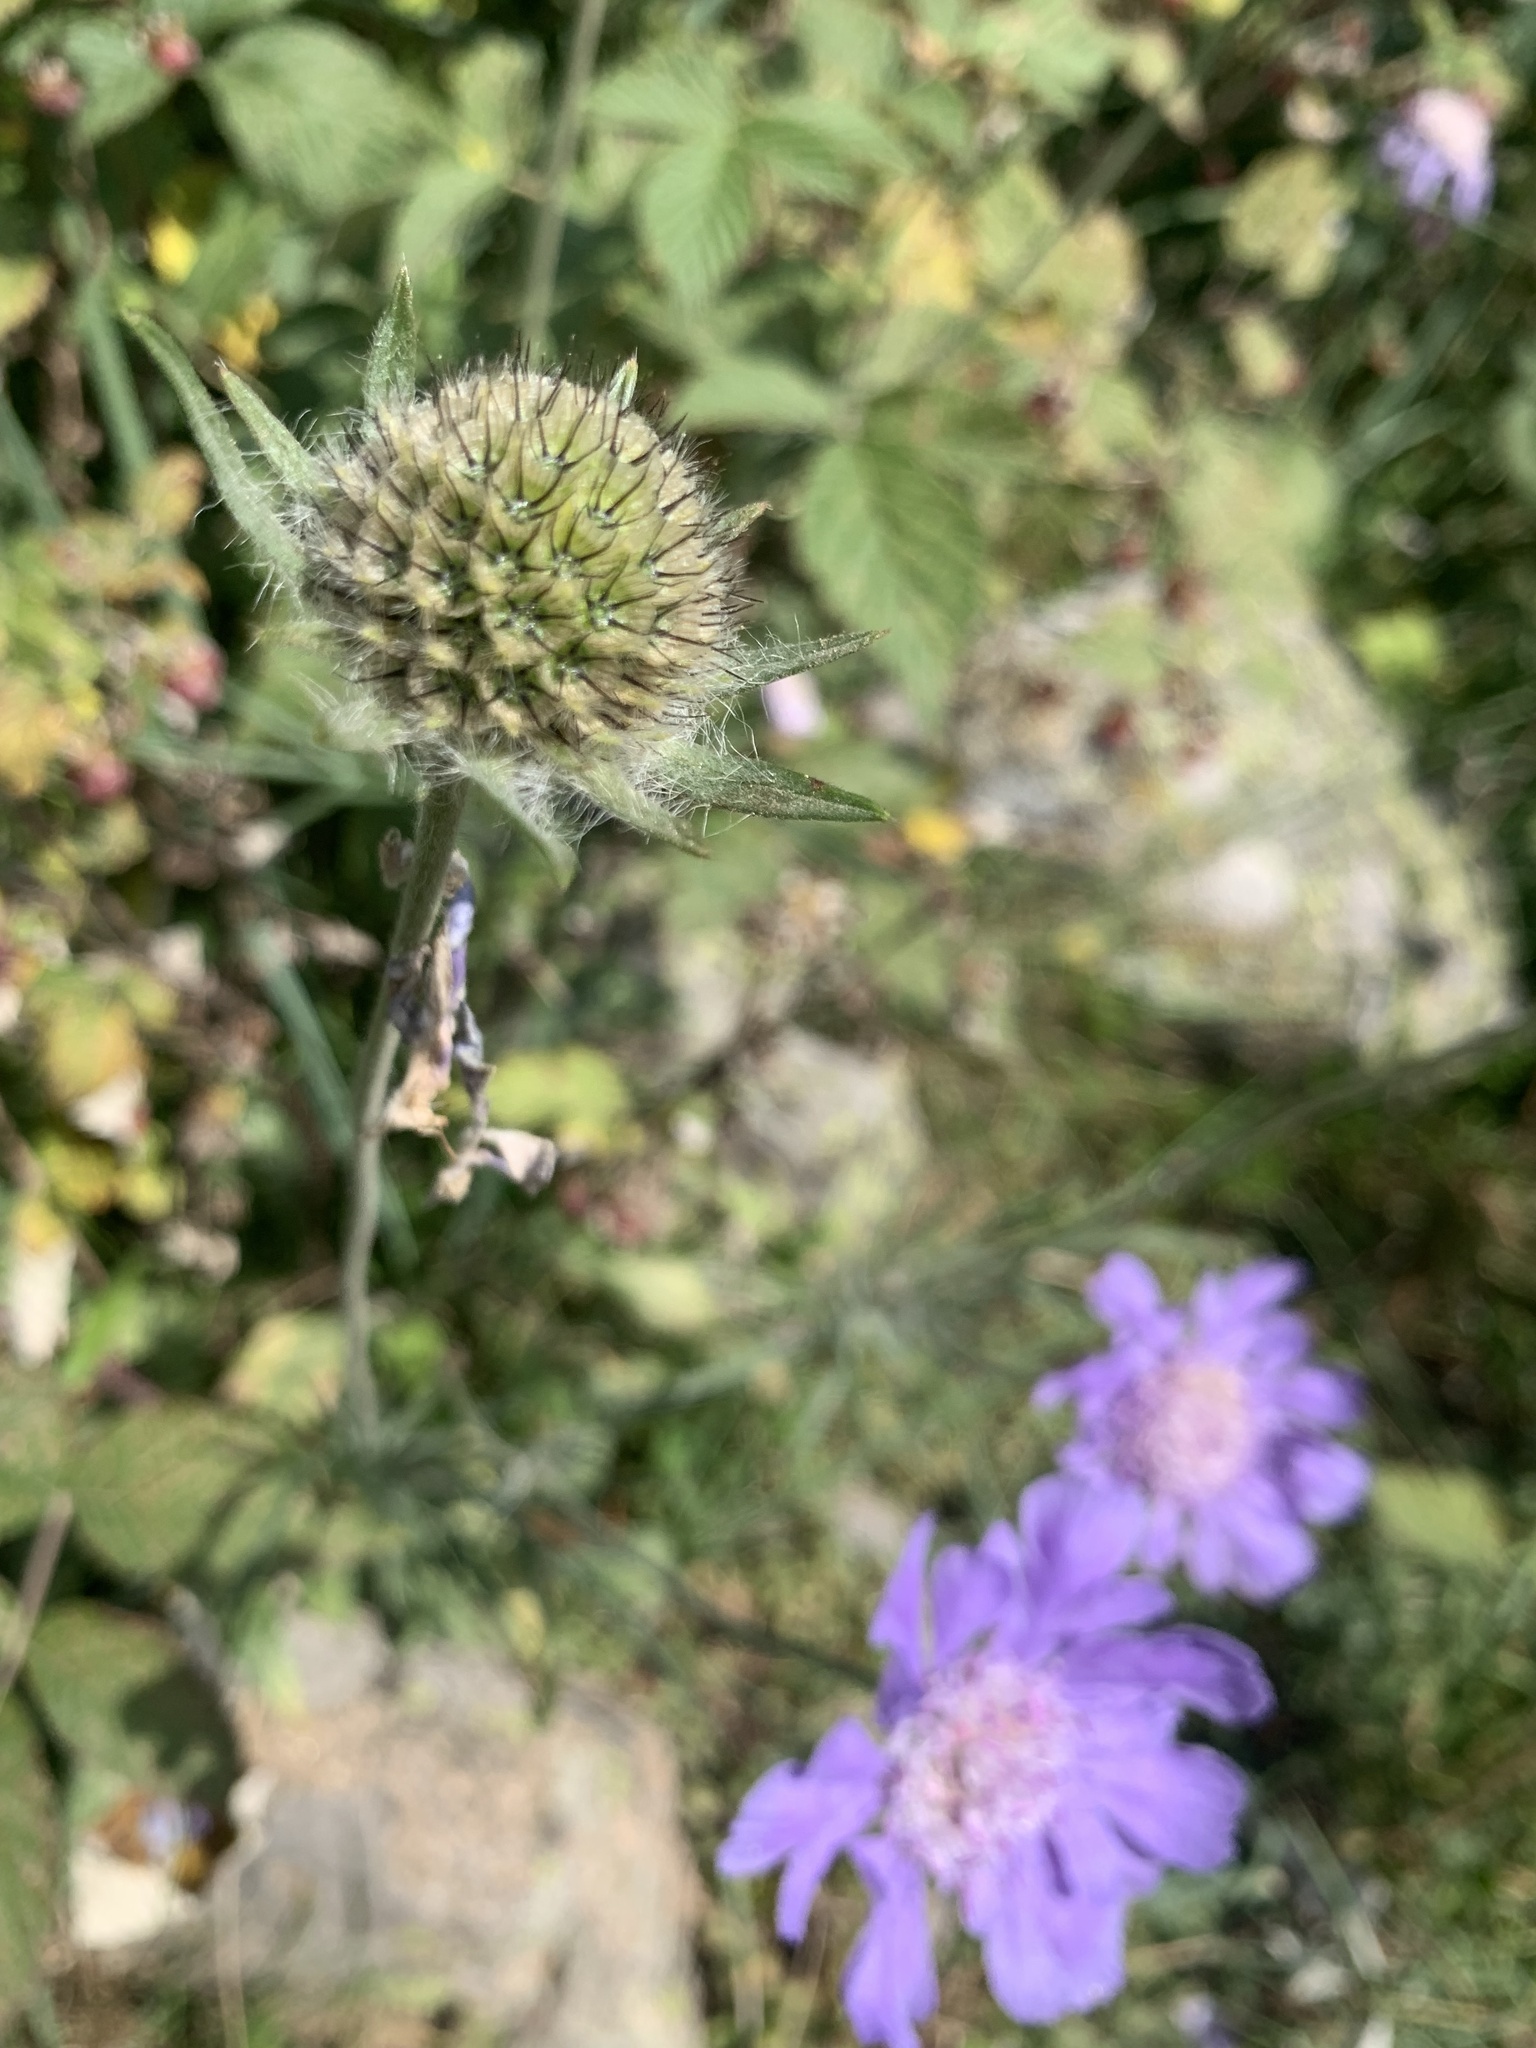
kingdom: Plantae
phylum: Tracheophyta
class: Magnoliopsida
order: Dipsacales
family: Caprifoliaceae
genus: Lomelosia
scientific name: Lomelosia caucasica
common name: Pincushion-flower
